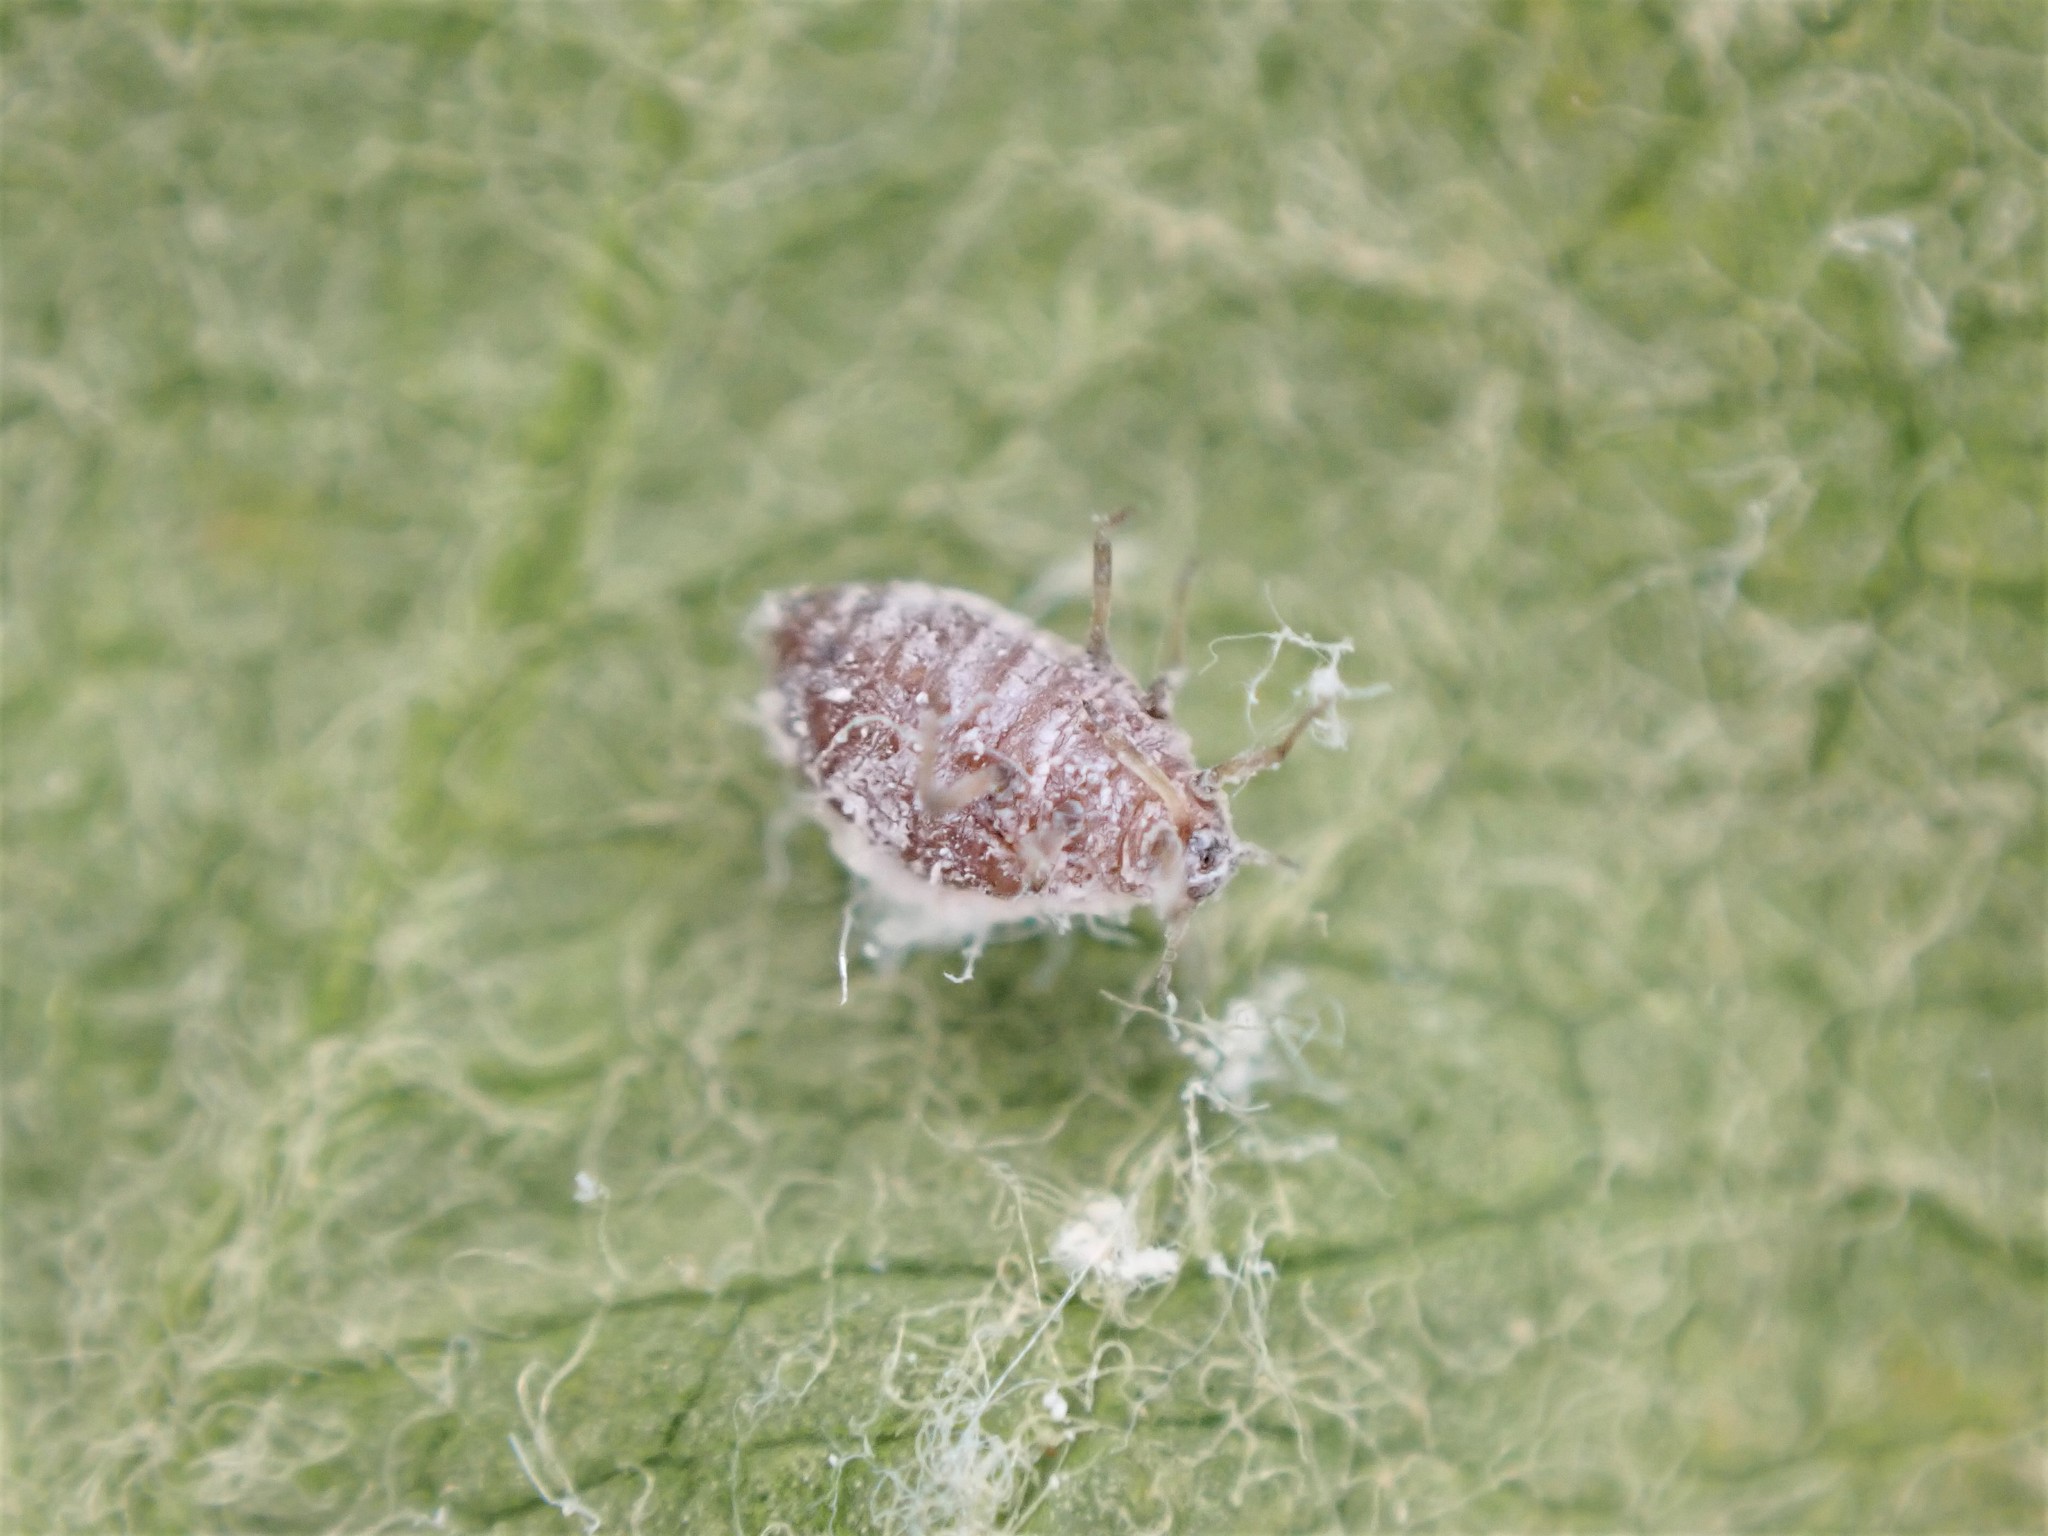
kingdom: Animalia
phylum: Arthropoda
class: Insecta
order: Hemiptera
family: Aphididae
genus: Eriosoma
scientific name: Eriosoma lanigerum
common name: Woolly apple aphid
